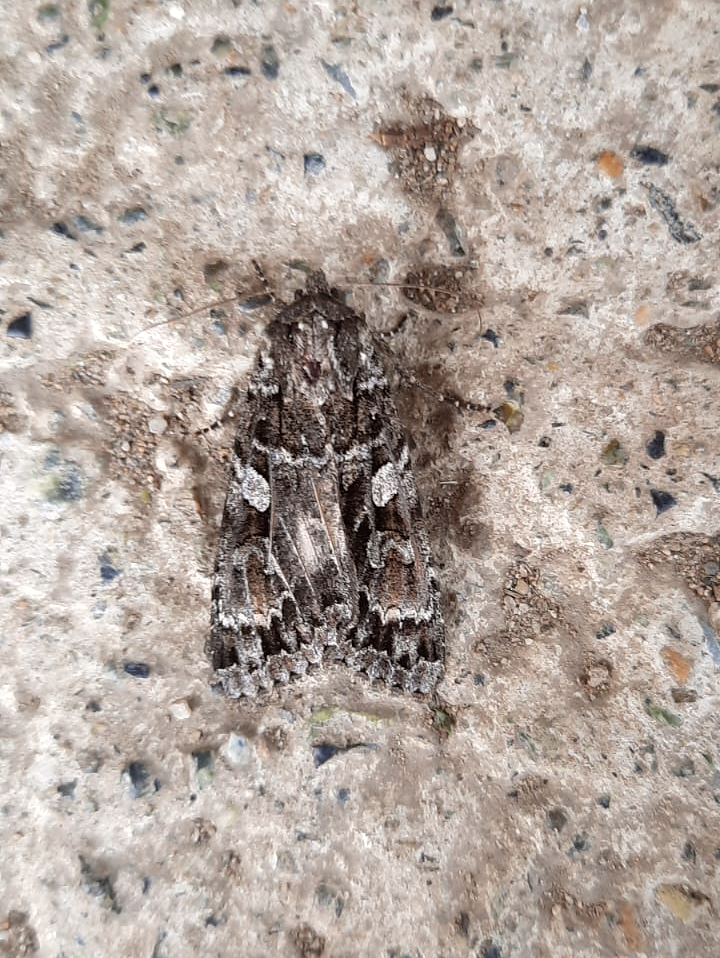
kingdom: Animalia
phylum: Arthropoda
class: Insecta
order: Lepidoptera
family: Noctuidae
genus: Eurois
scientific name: Eurois occulta
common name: Great brocade
